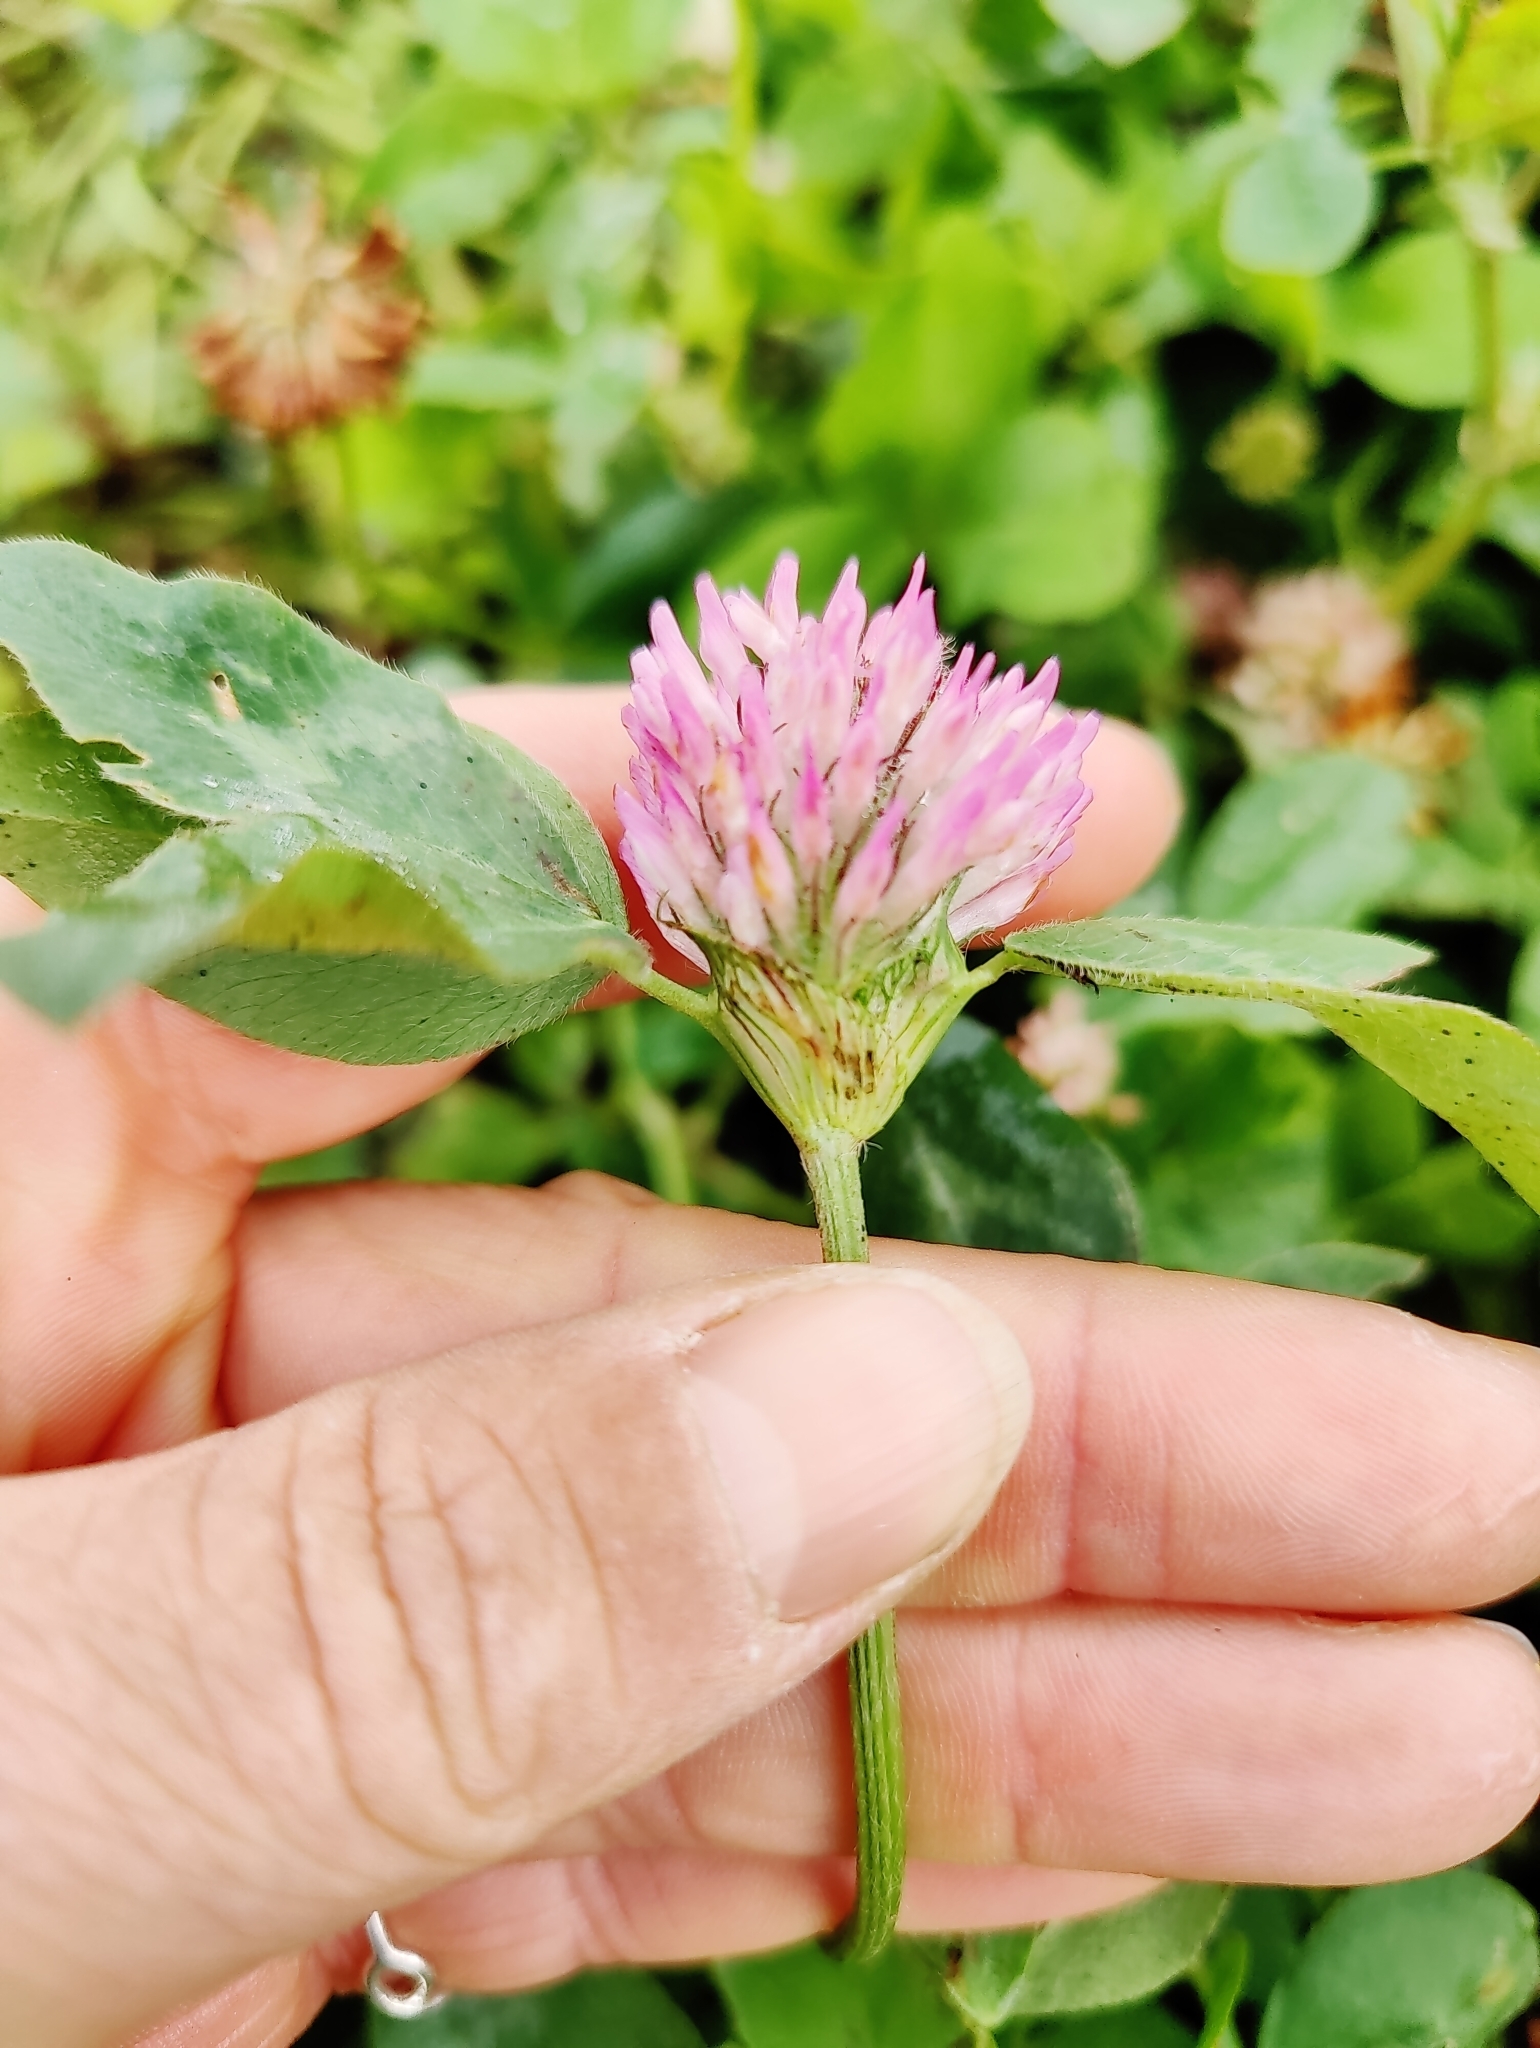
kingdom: Plantae
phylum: Tracheophyta
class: Magnoliopsida
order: Fabales
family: Fabaceae
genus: Trifolium
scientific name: Trifolium pratense
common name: Red clover
